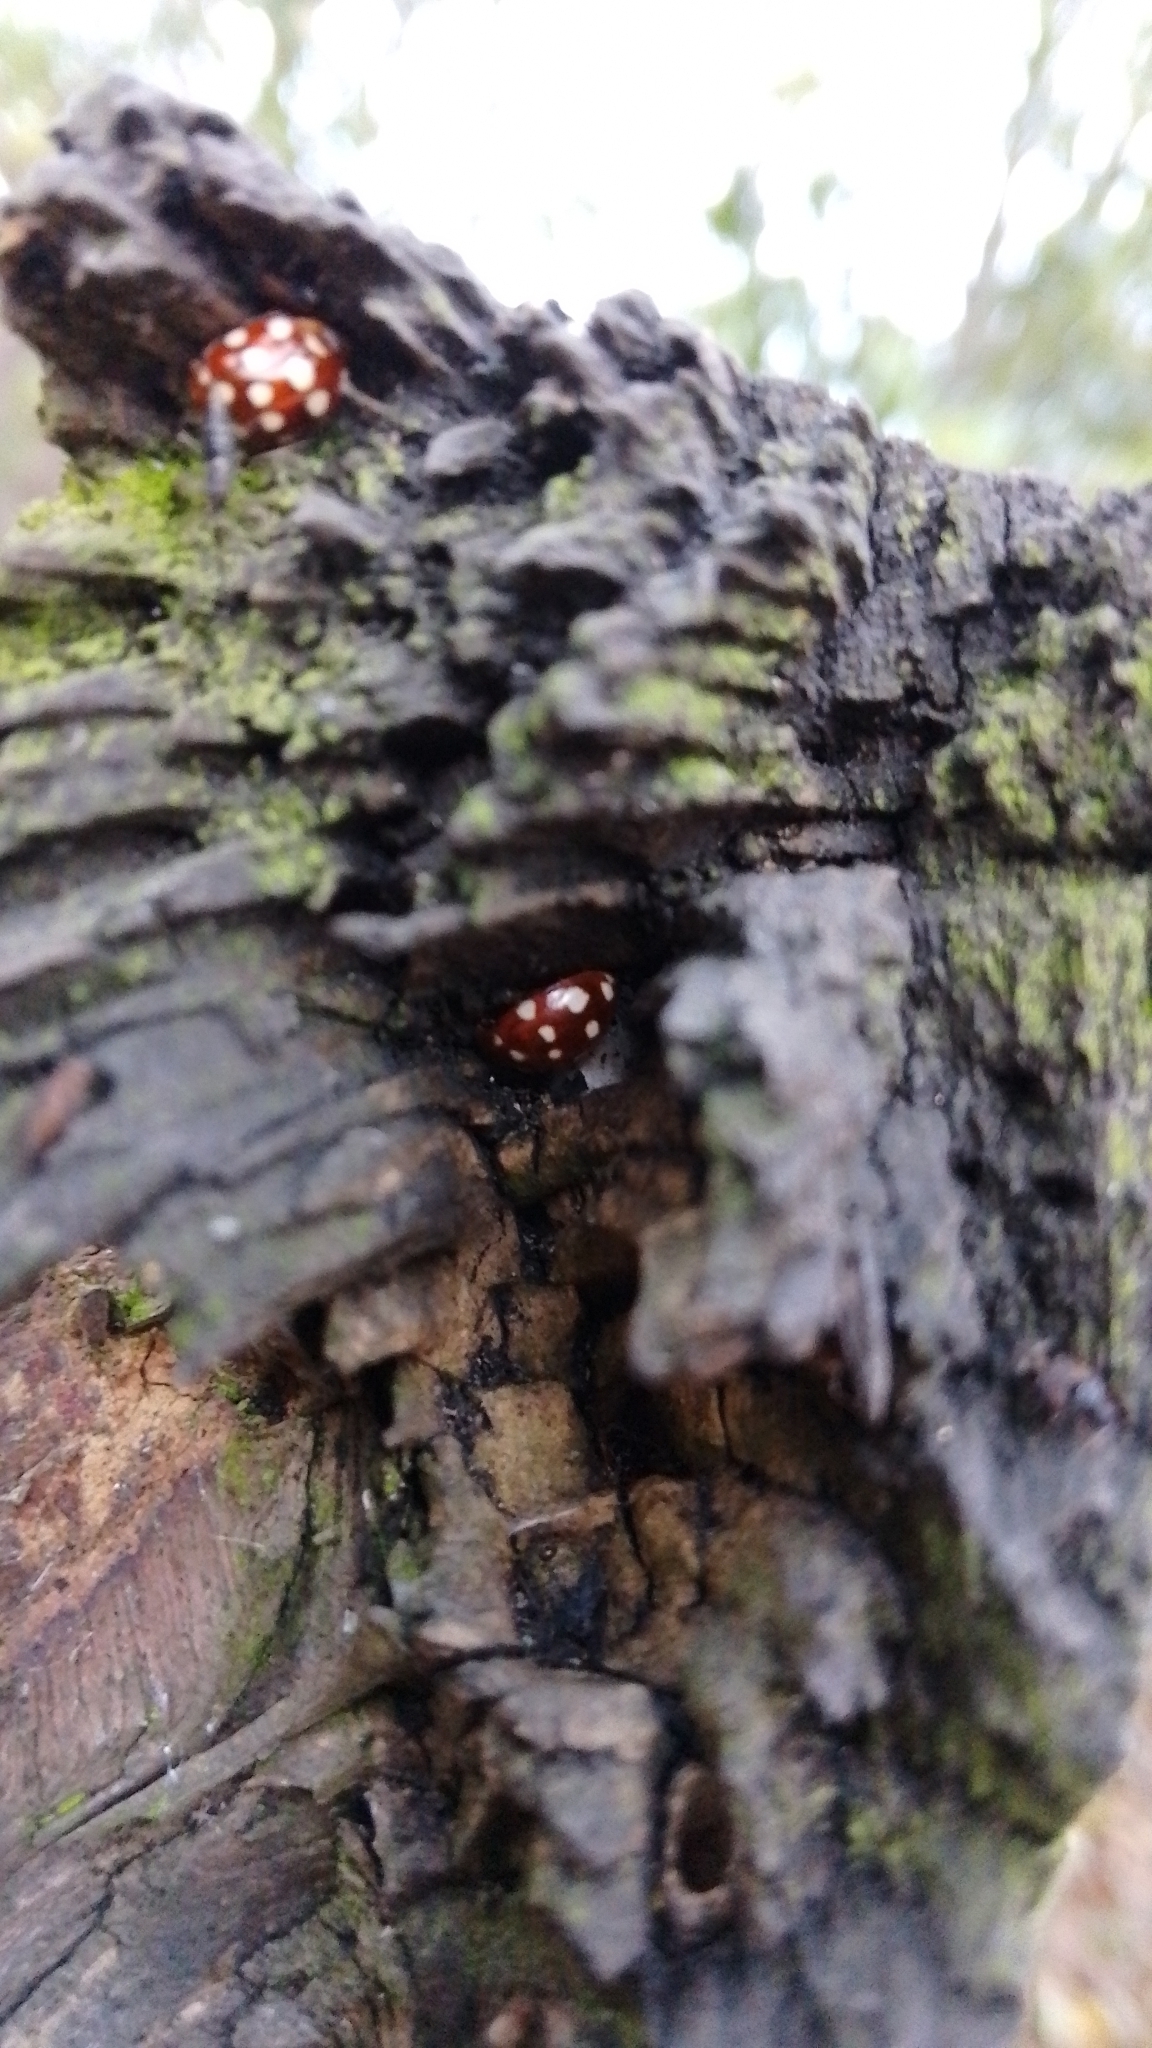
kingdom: Animalia
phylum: Arthropoda
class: Insecta
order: Coleoptera
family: Coccinellidae
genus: Calvia
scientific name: Calvia quatuordecimguttata
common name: Cream-spot ladybird
